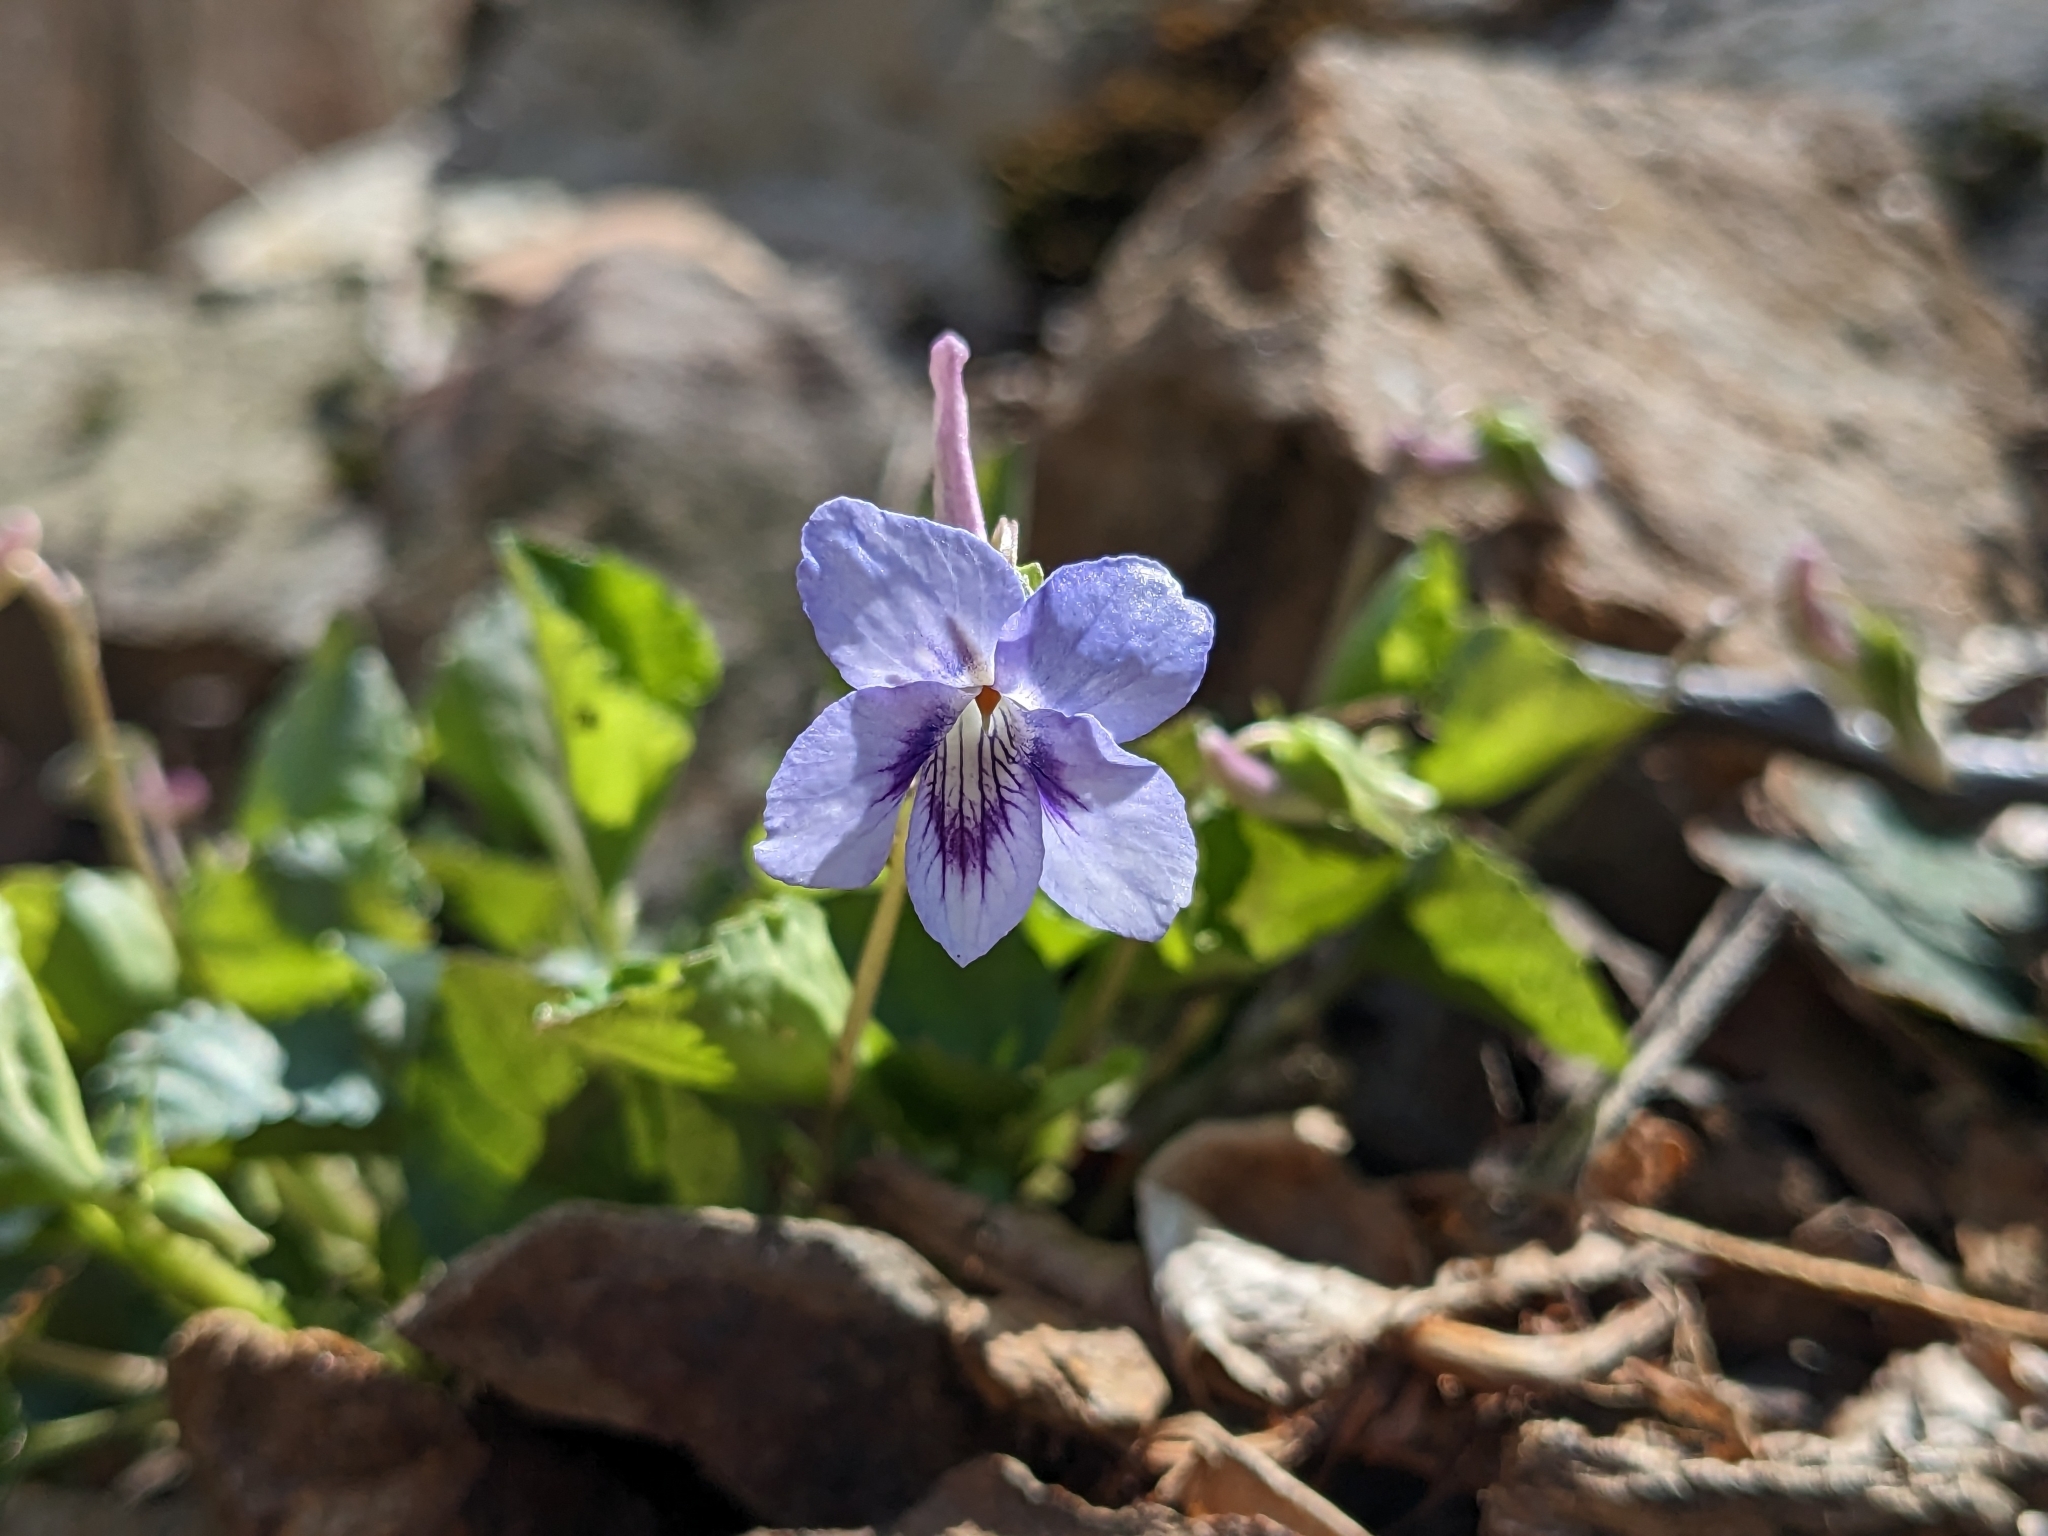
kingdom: Plantae
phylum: Tracheophyta
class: Magnoliopsida
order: Malpighiales
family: Violaceae
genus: Viola
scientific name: Viola rostrata
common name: Long-spur violet
